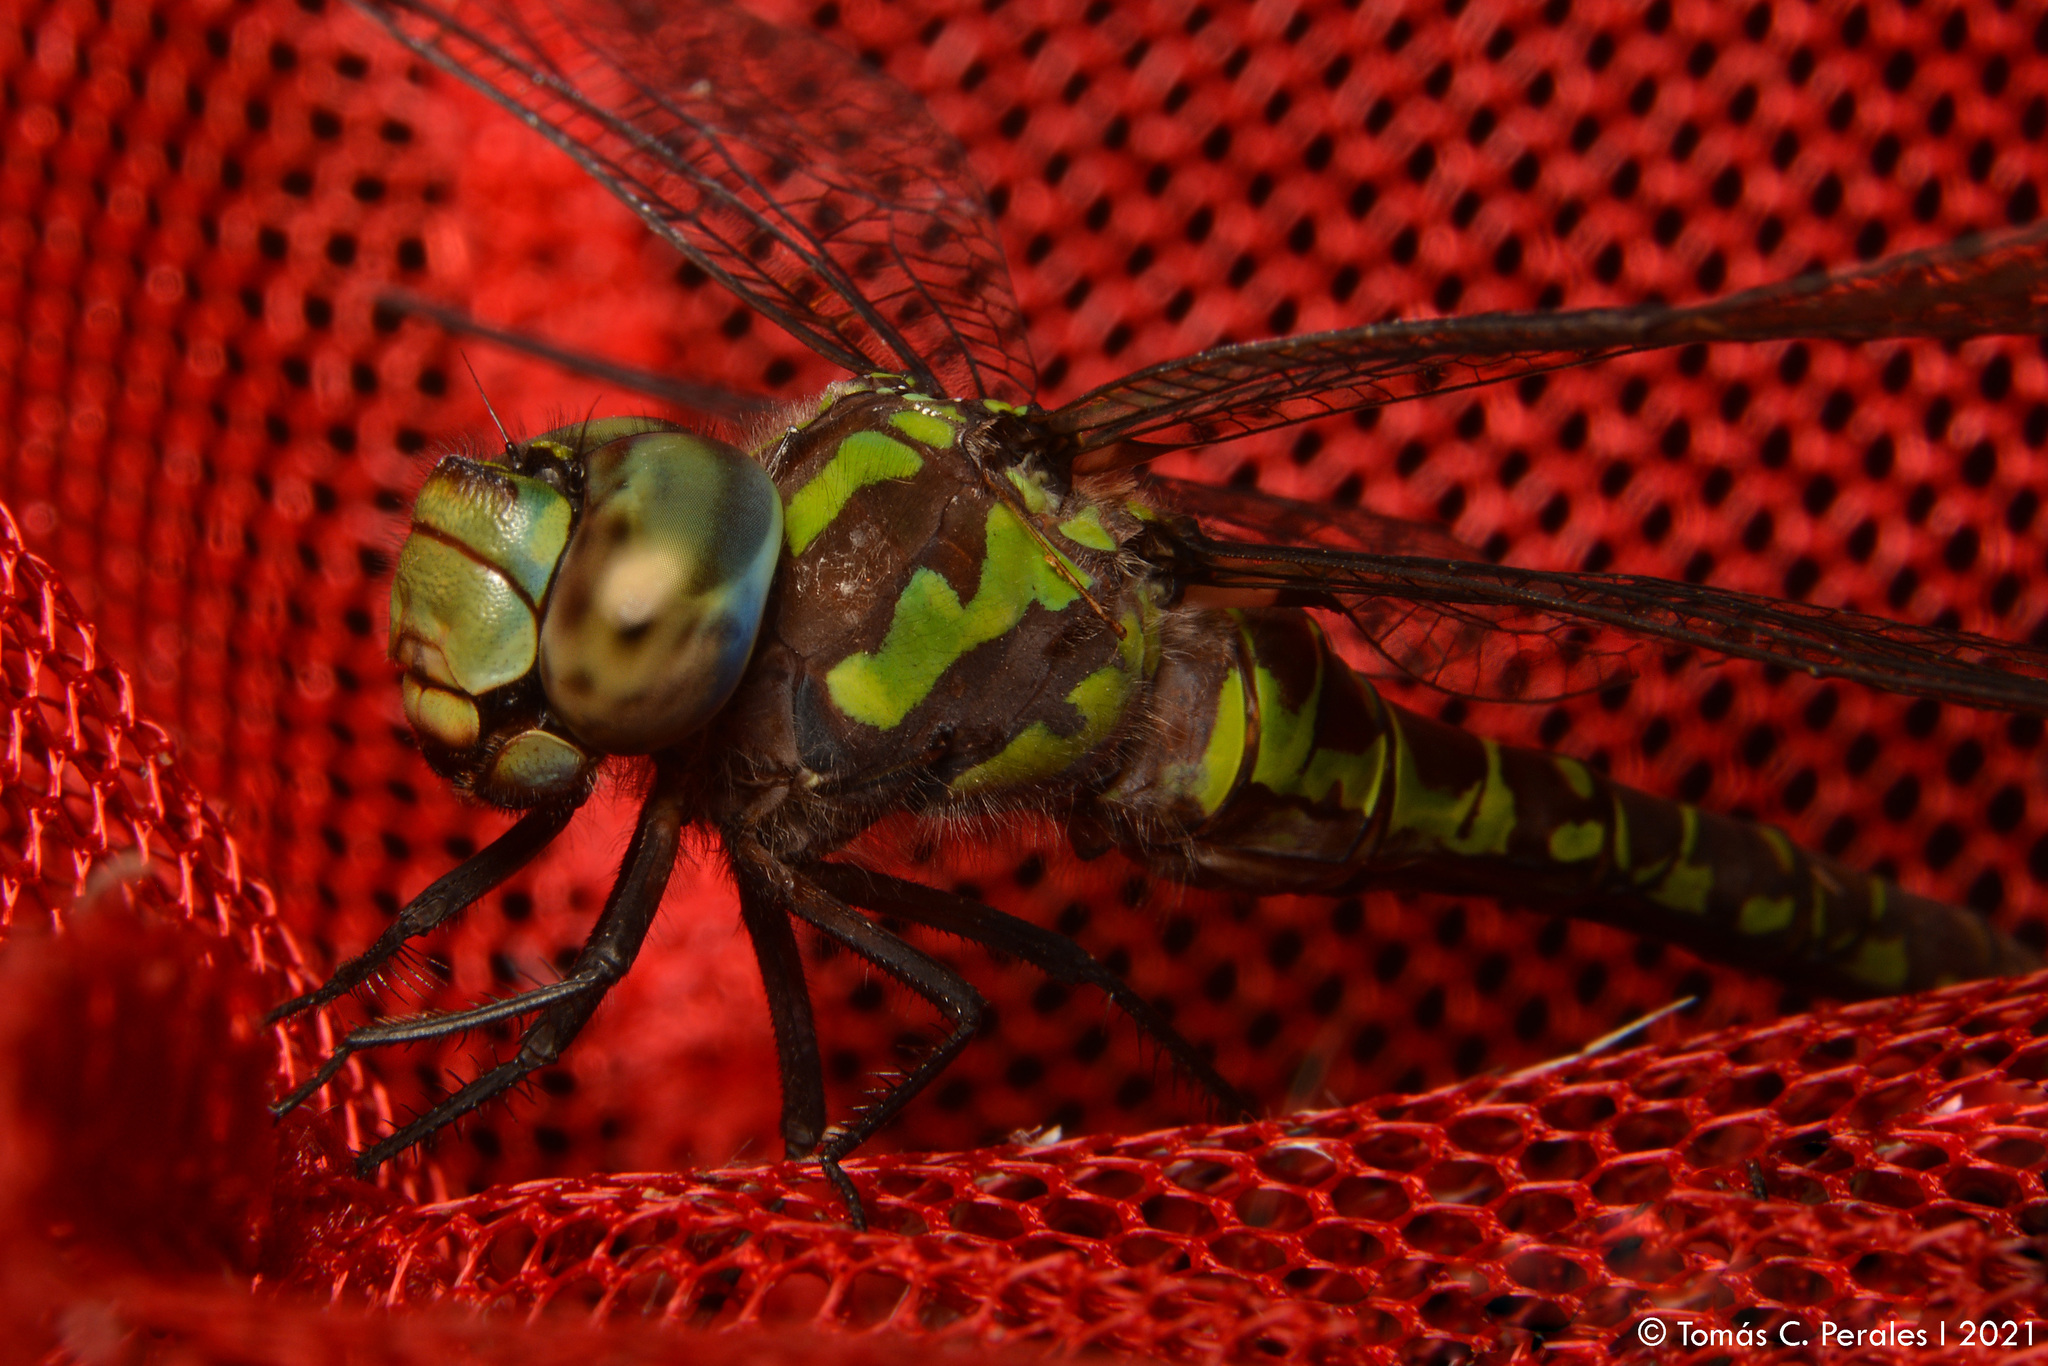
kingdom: Animalia
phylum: Arthropoda
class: Insecta
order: Odonata
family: Aeshnidae
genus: Rhionaeschna
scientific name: Rhionaeschna planaltica
